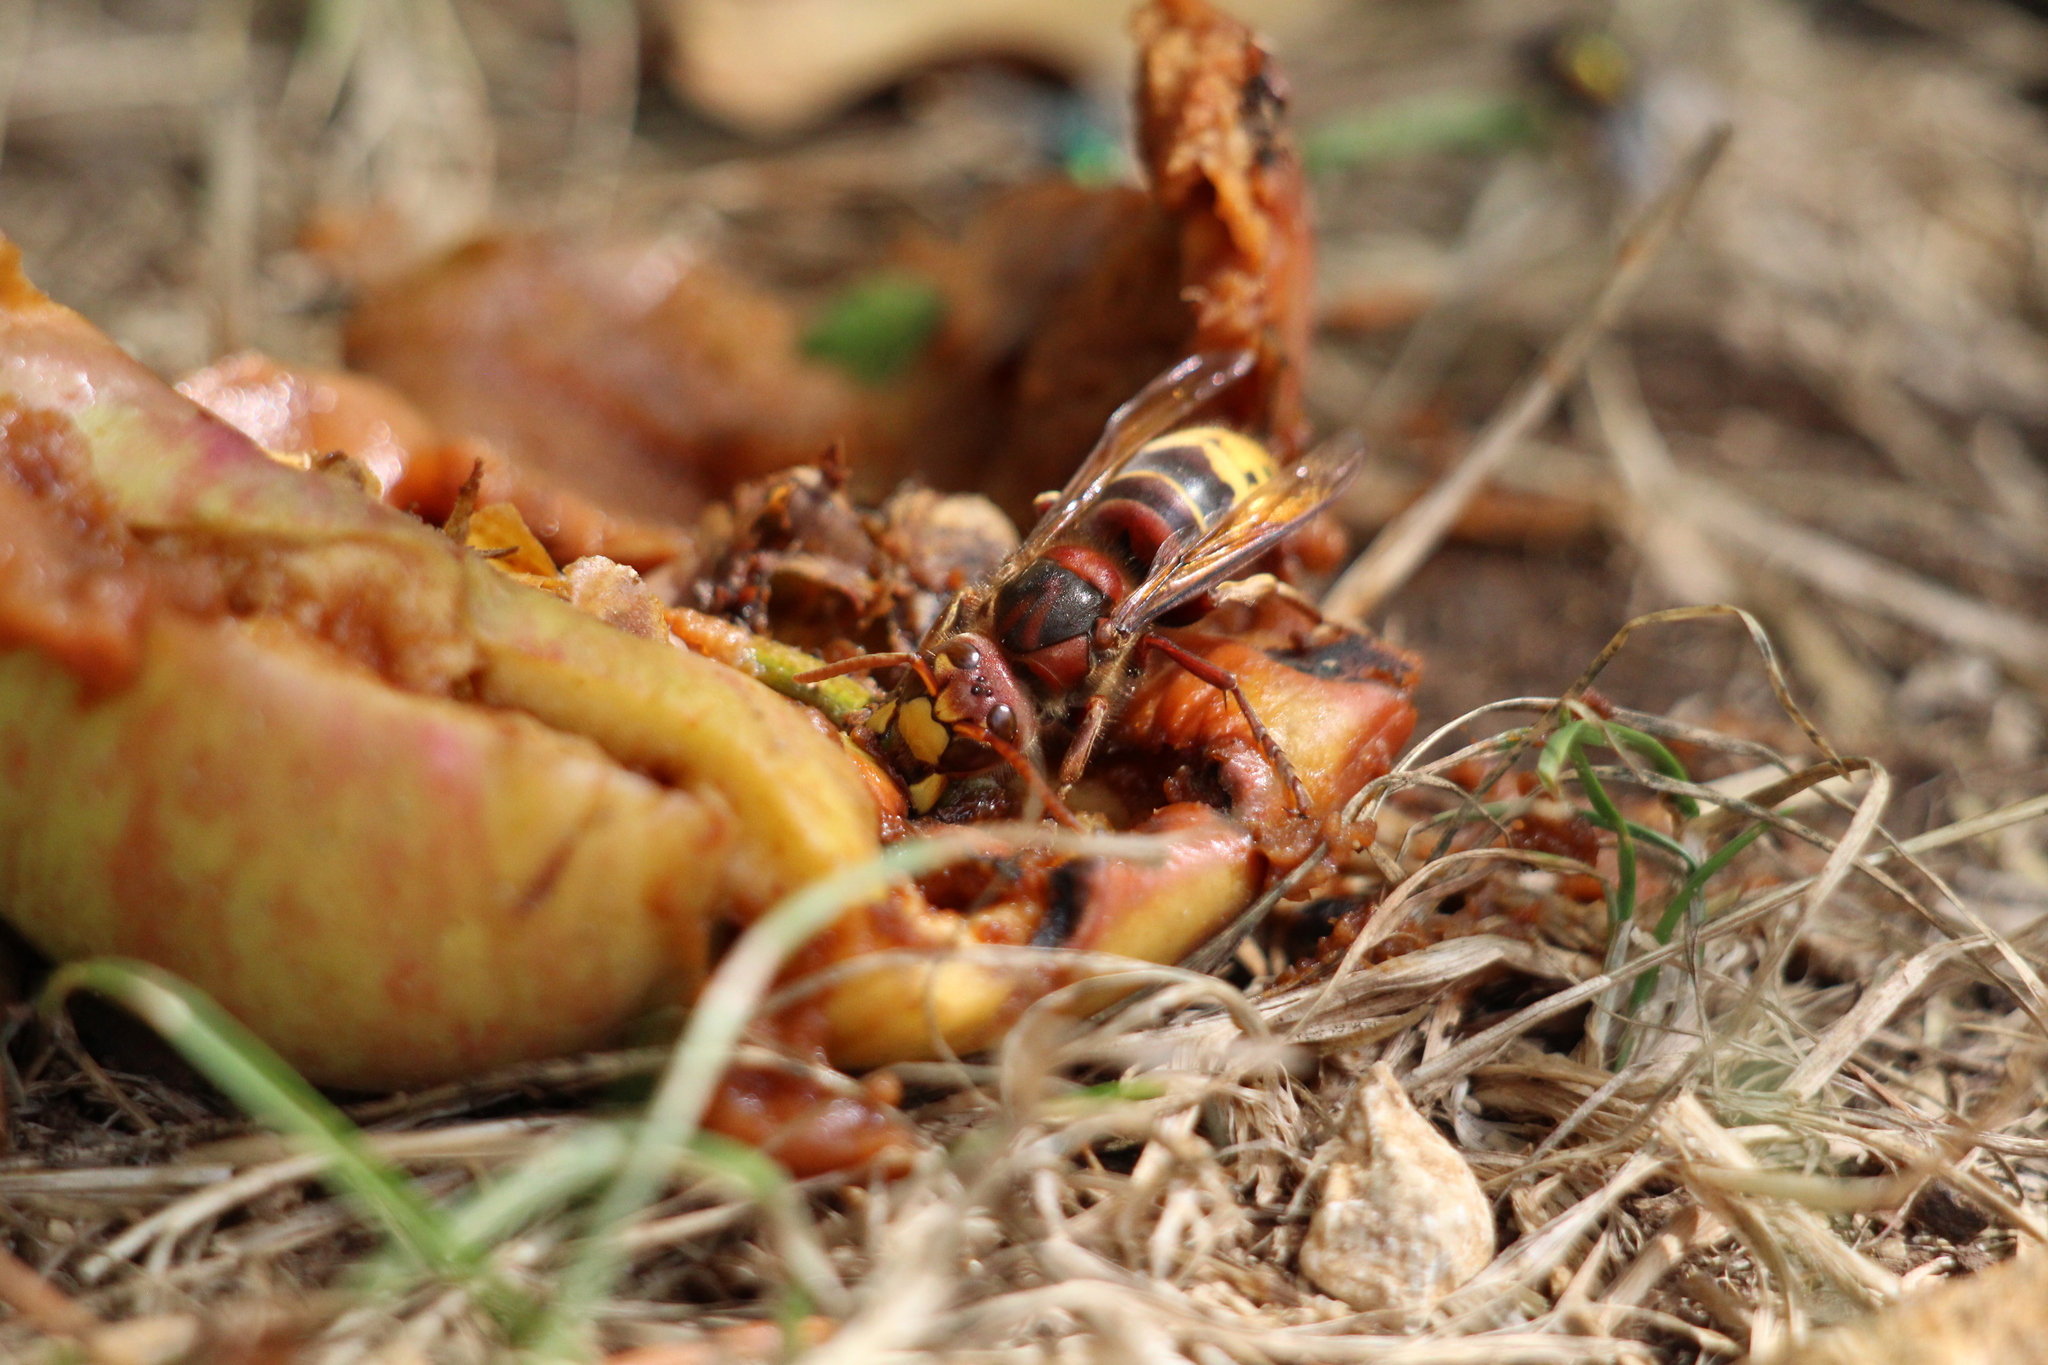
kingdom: Animalia
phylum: Arthropoda
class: Insecta
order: Hymenoptera
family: Vespidae
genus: Vespa
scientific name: Vespa crabro
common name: Hornet
